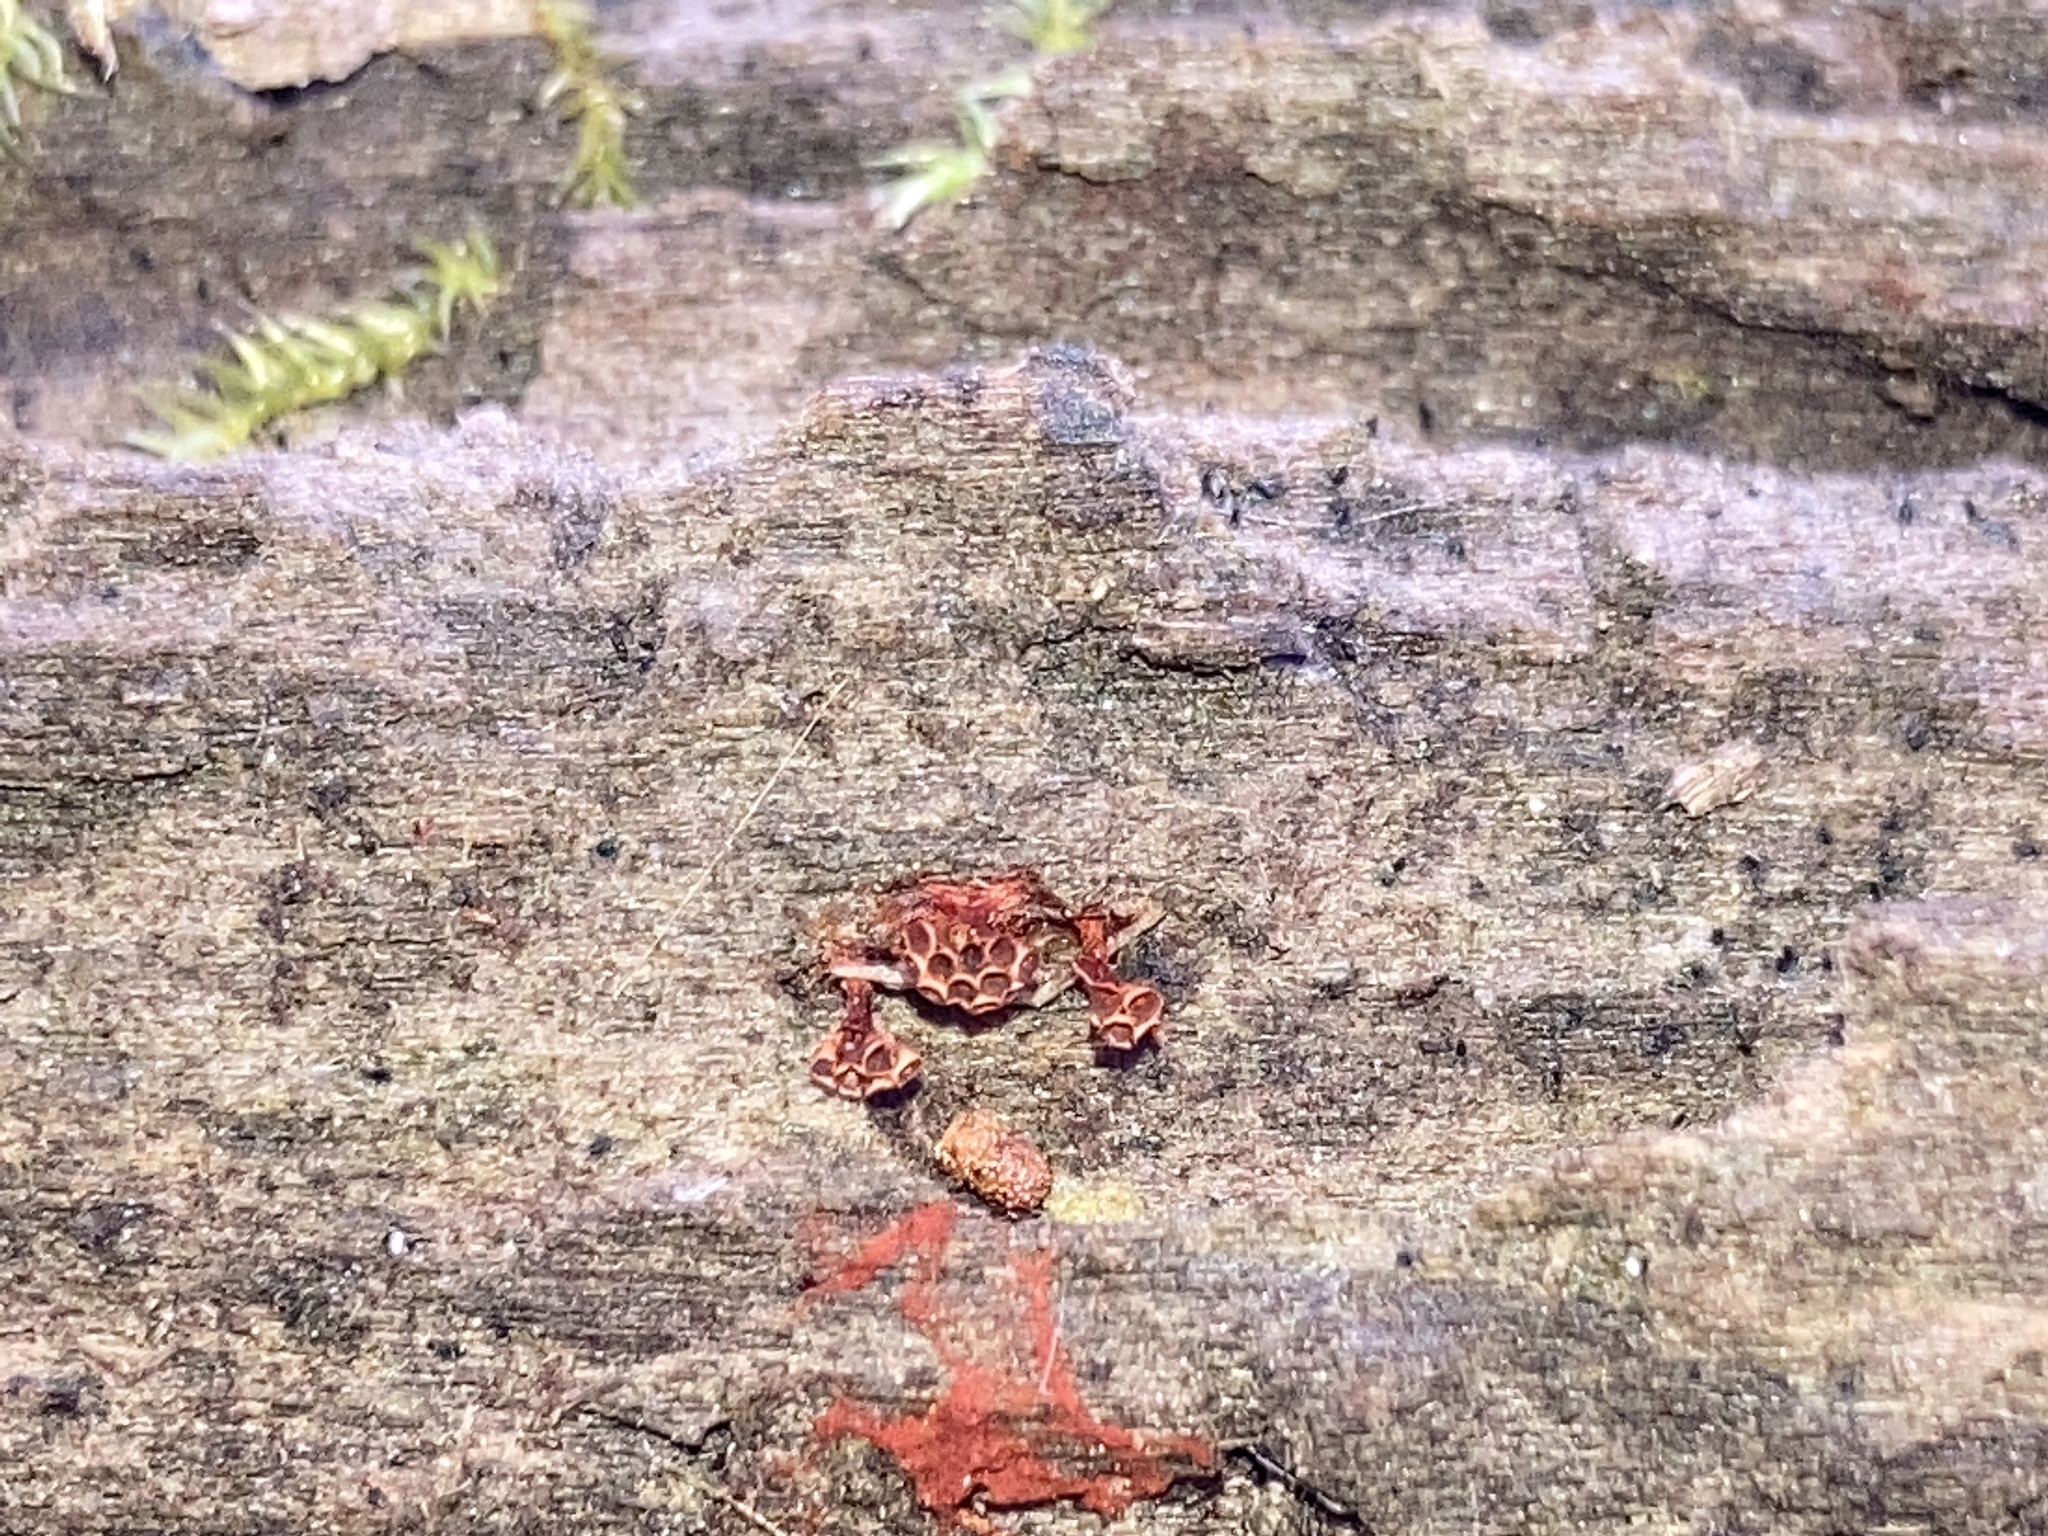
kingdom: Protozoa
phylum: Mycetozoa
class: Myxomycetes
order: Trichiales
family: Trichiaceae
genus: Metatrichia
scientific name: Metatrichia vesparia
